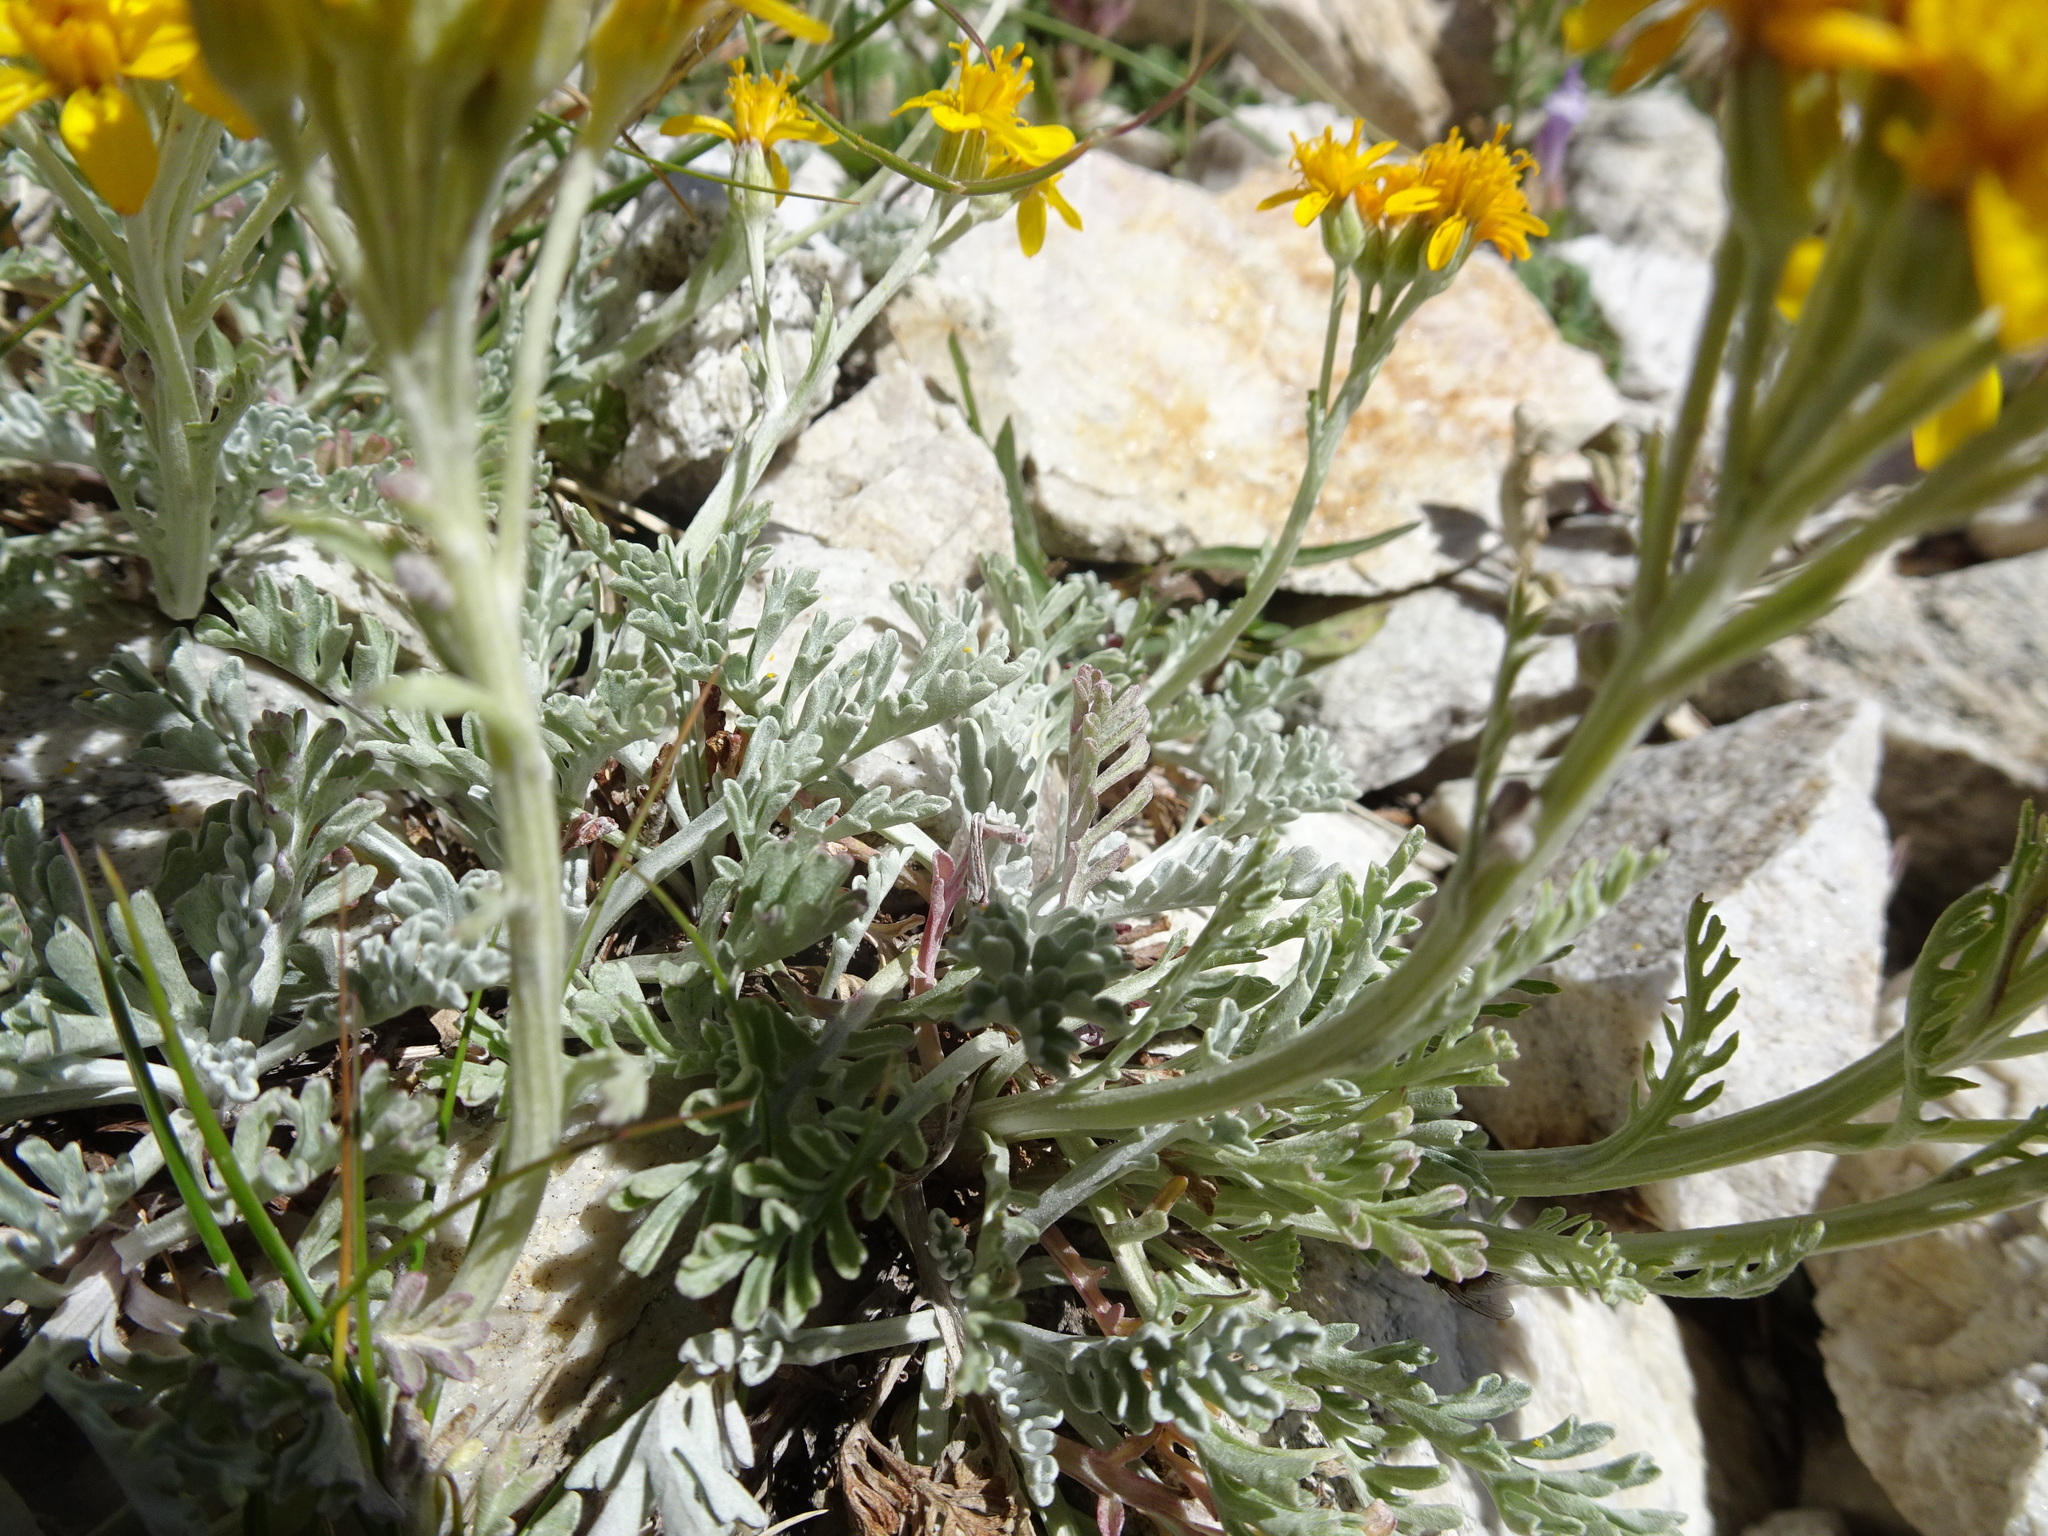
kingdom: Plantae
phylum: Tracheophyta
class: Magnoliopsida
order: Asterales
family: Asteraceae
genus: Jacobaea
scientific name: Jacobaea maritima
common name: Silver ragwort
